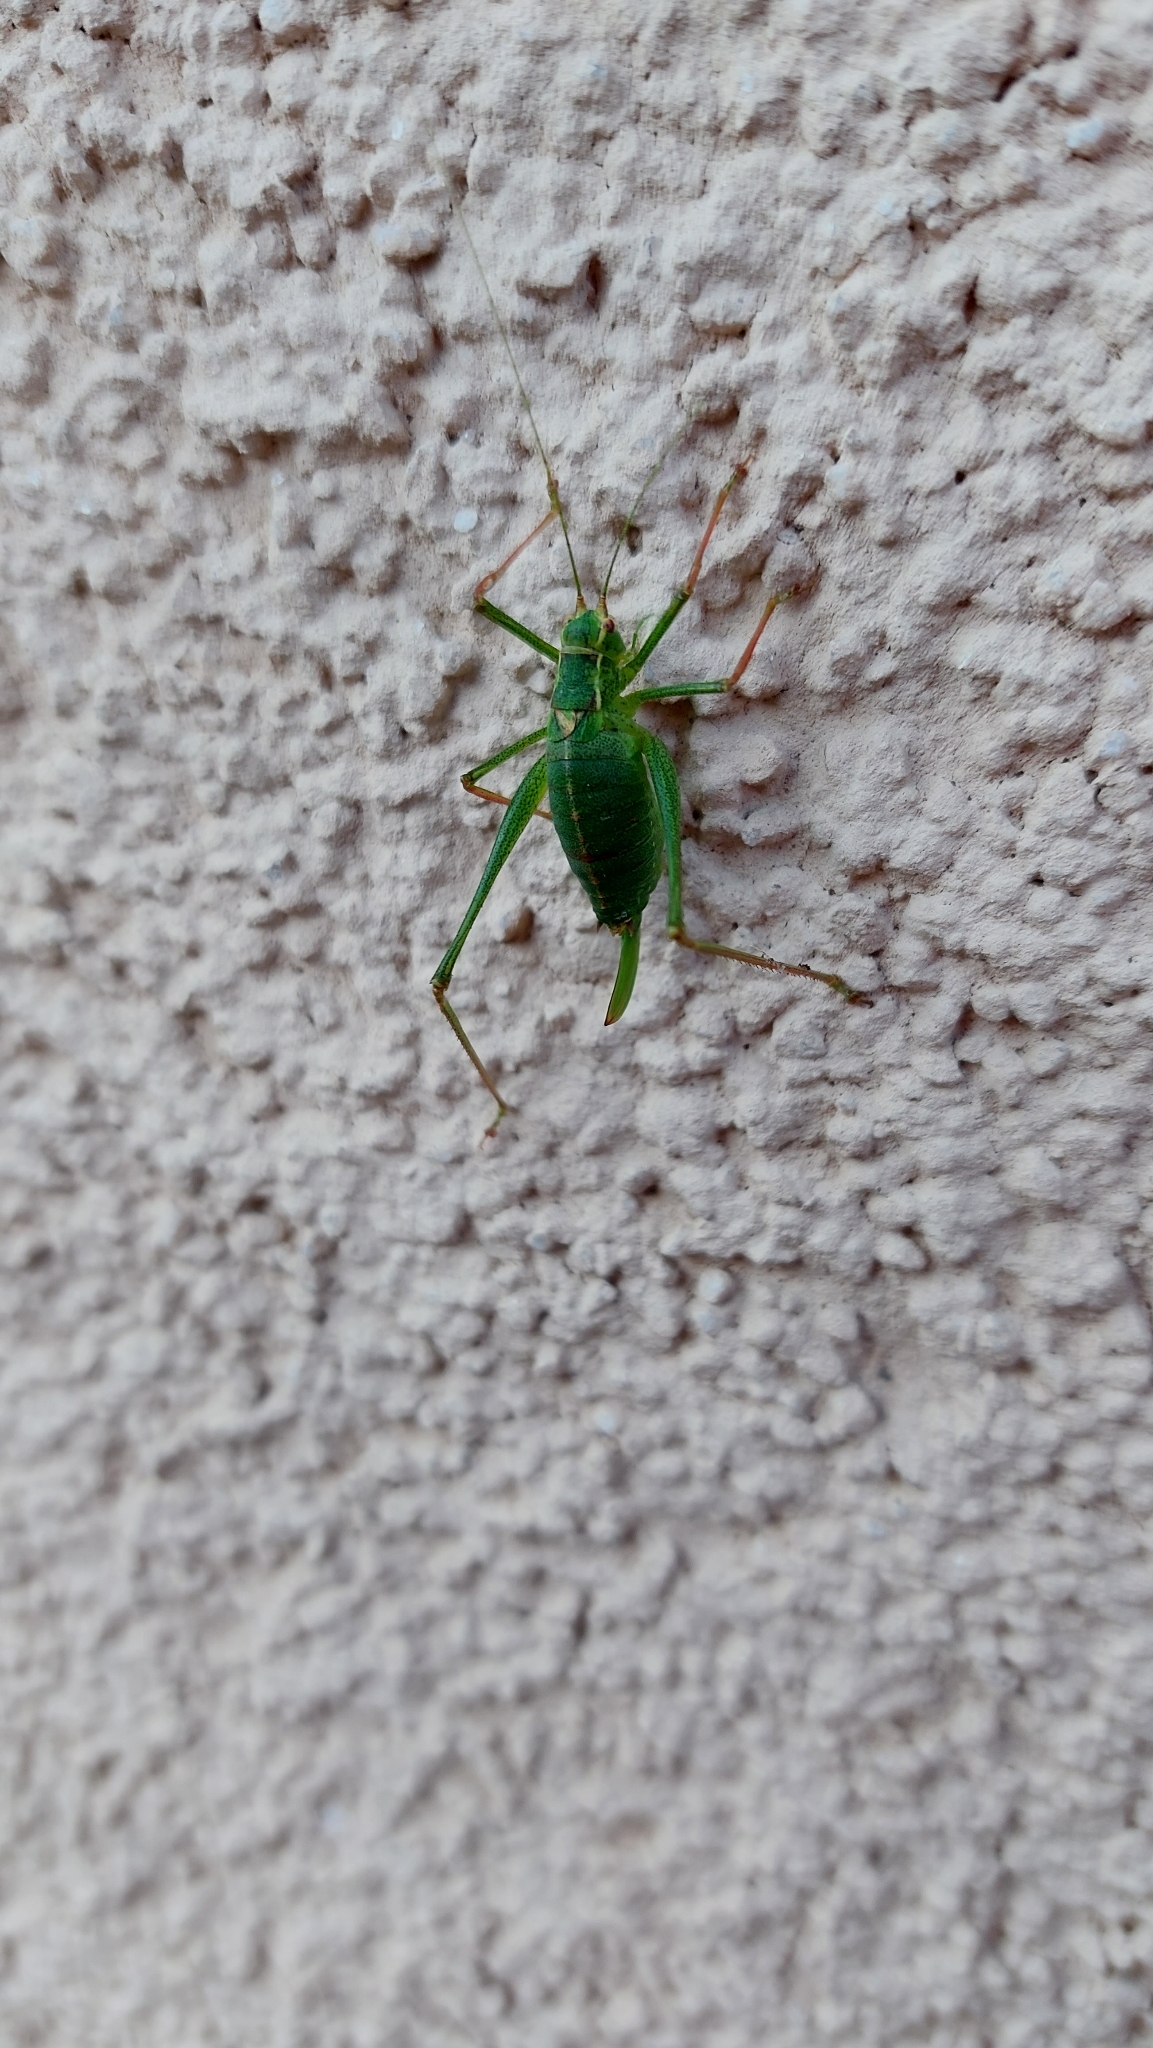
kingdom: Animalia
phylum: Arthropoda
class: Insecta
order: Orthoptera
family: Tettigoniidae
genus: Leptophyes
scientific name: Leptophyes punctatissima
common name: Speckled bush-cricket
